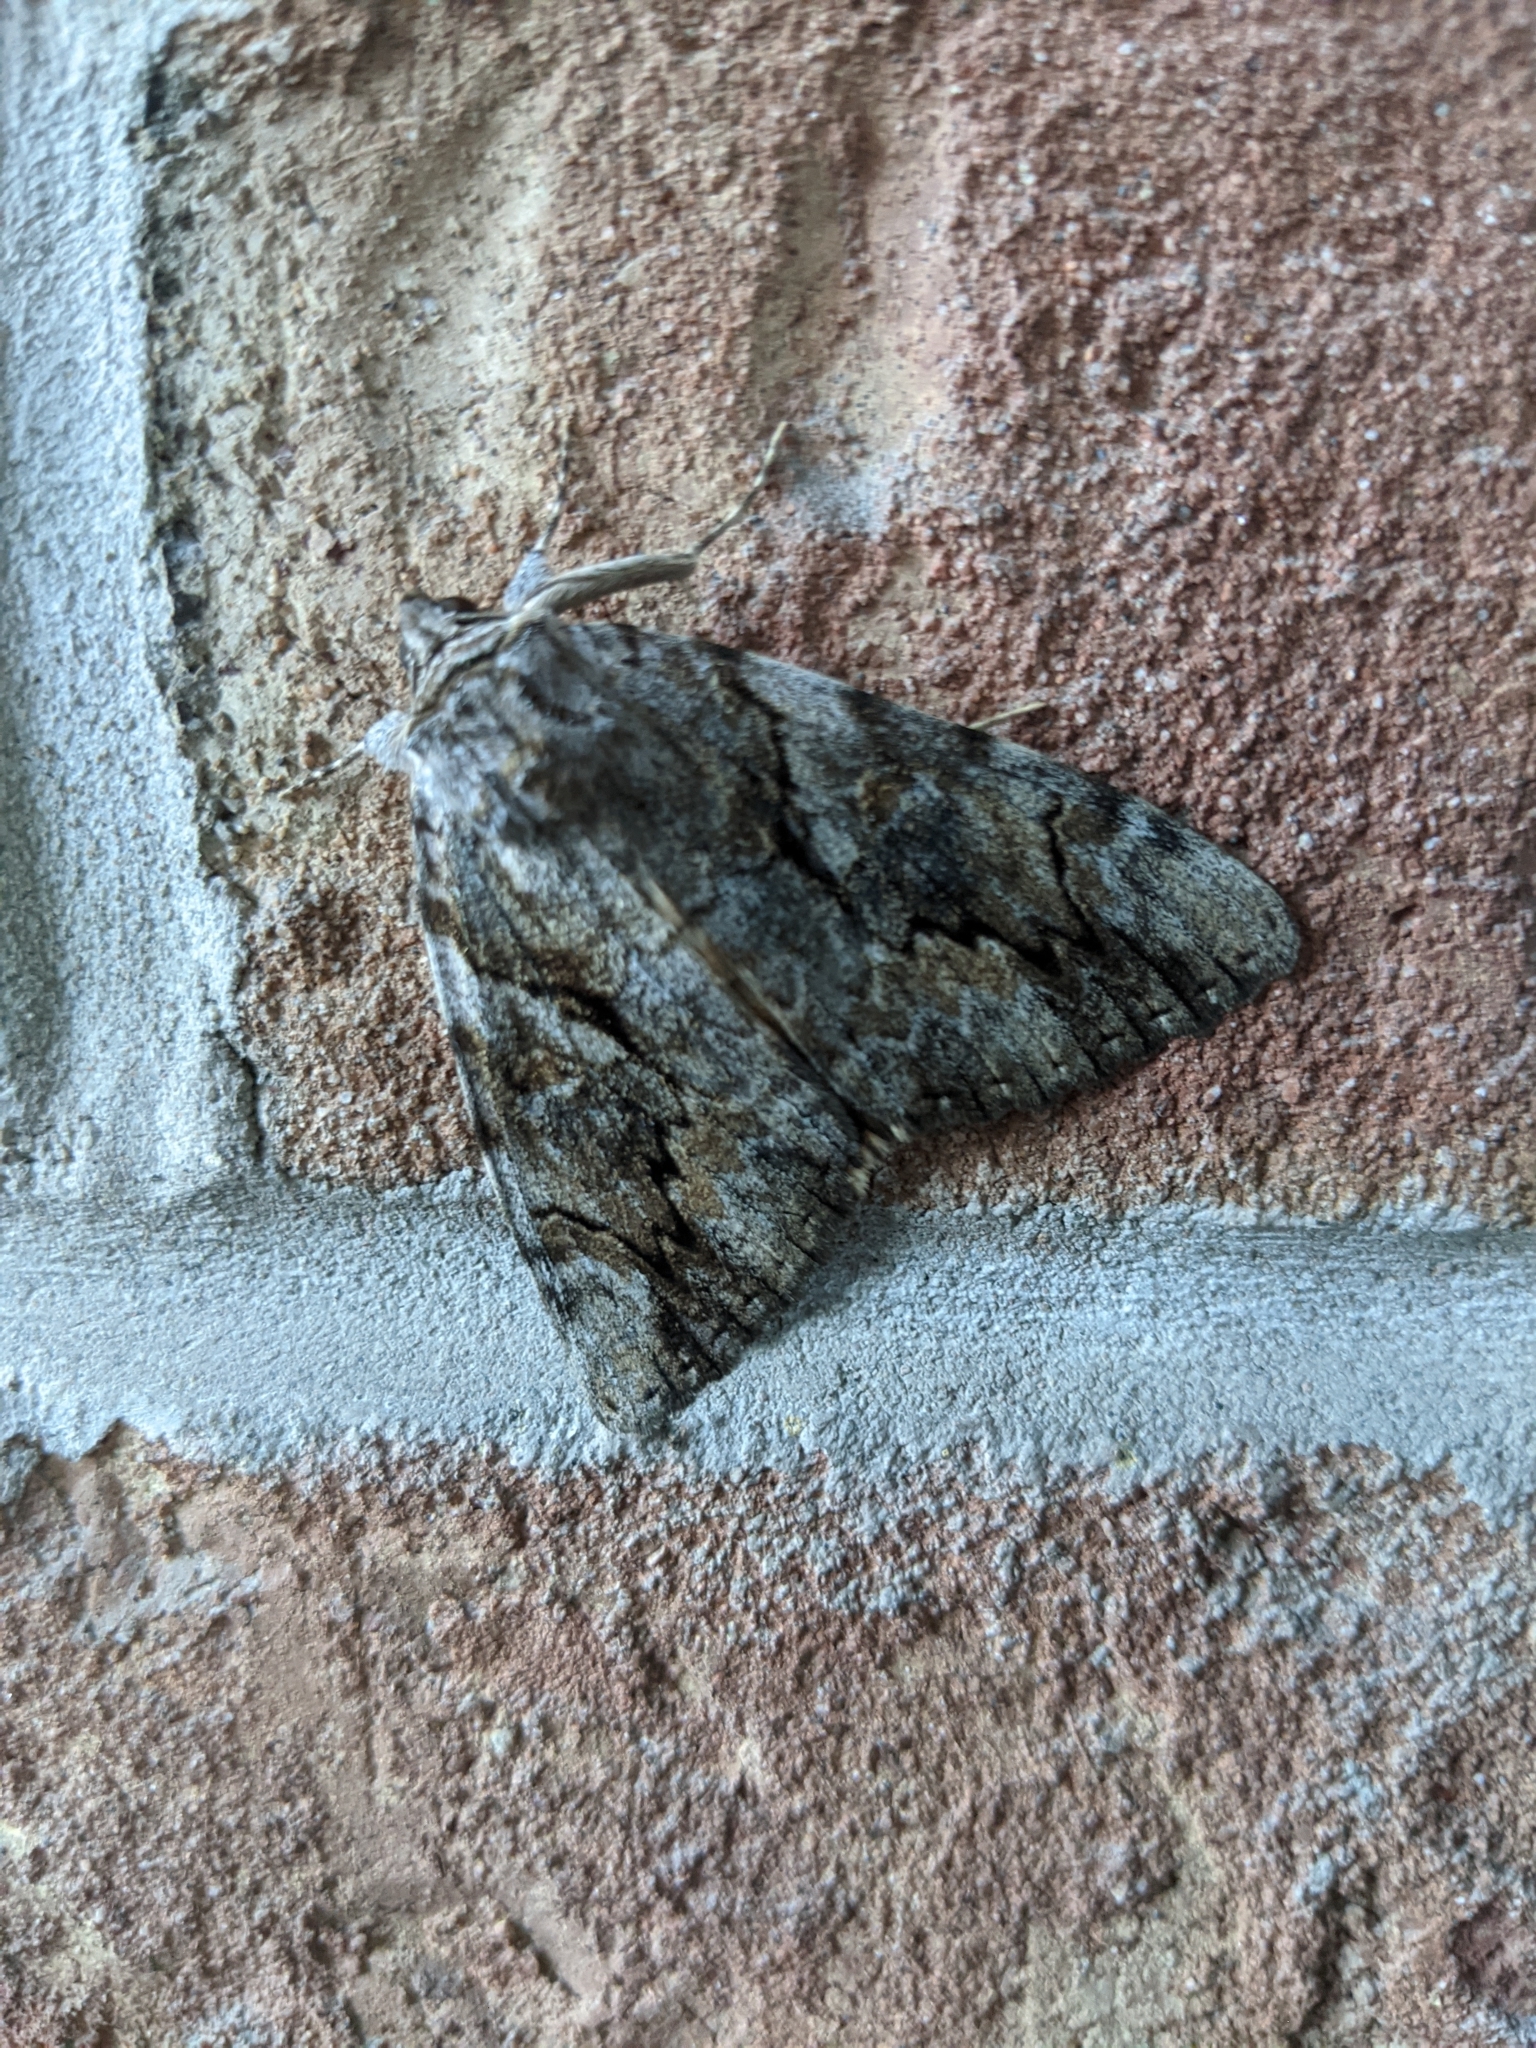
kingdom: Animalia
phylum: Arthropoda
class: Insecta
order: Lepidoptera
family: Erebidae
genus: Catocala
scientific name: Catocala cerogama
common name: Yellow banded underwing
